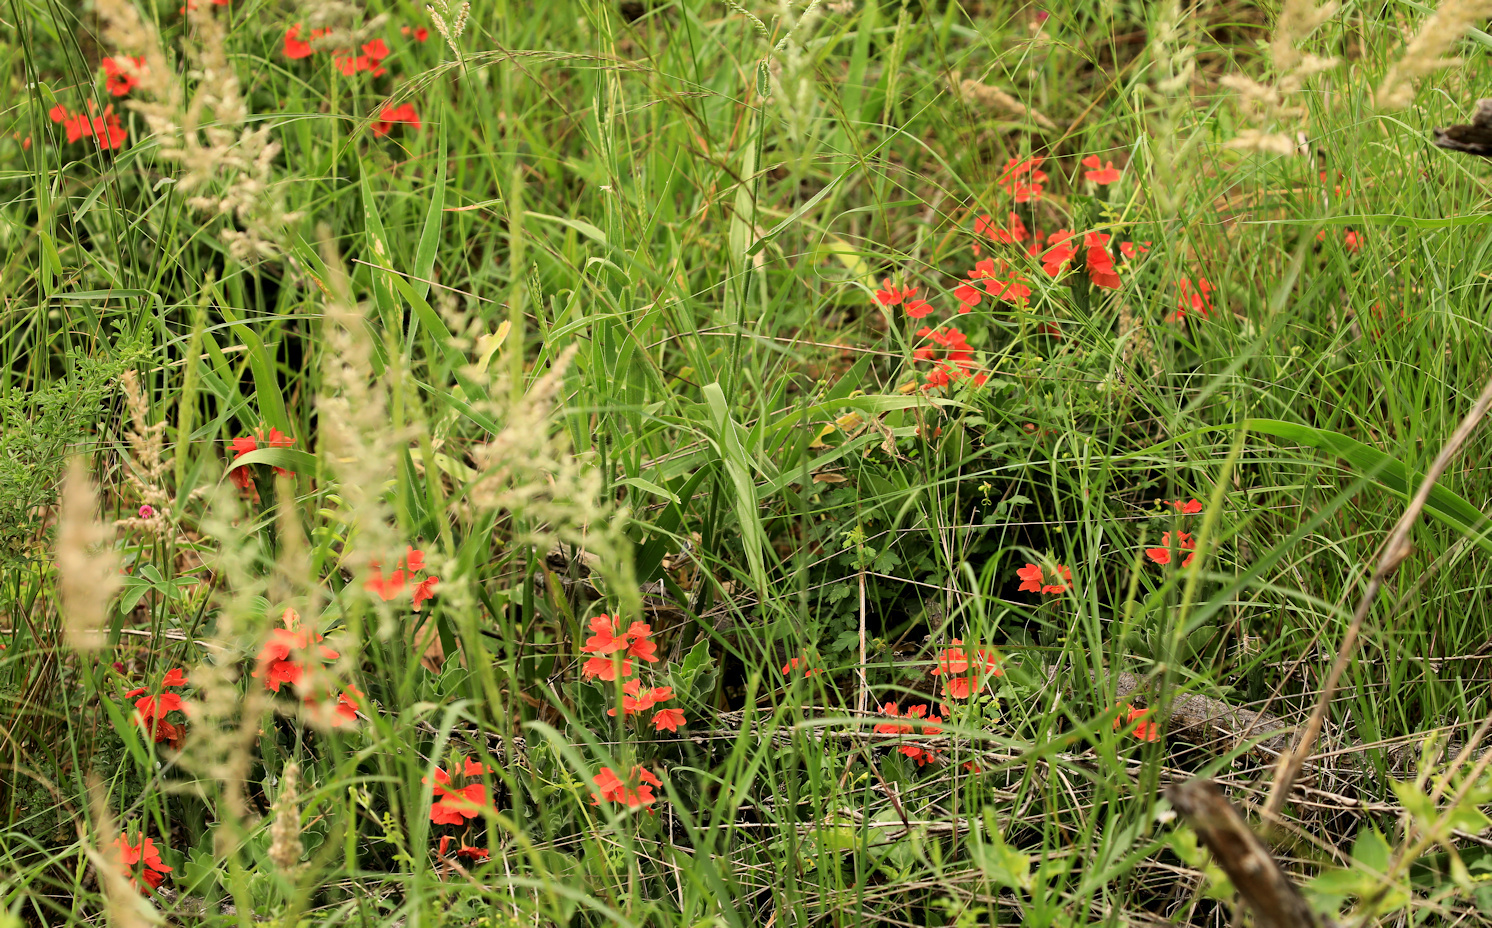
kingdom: Plantae
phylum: Tracheophyta
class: Magnoliopsida
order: Lamiales
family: Acanthaceae
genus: Crossandra
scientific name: Crossandra mucronata
